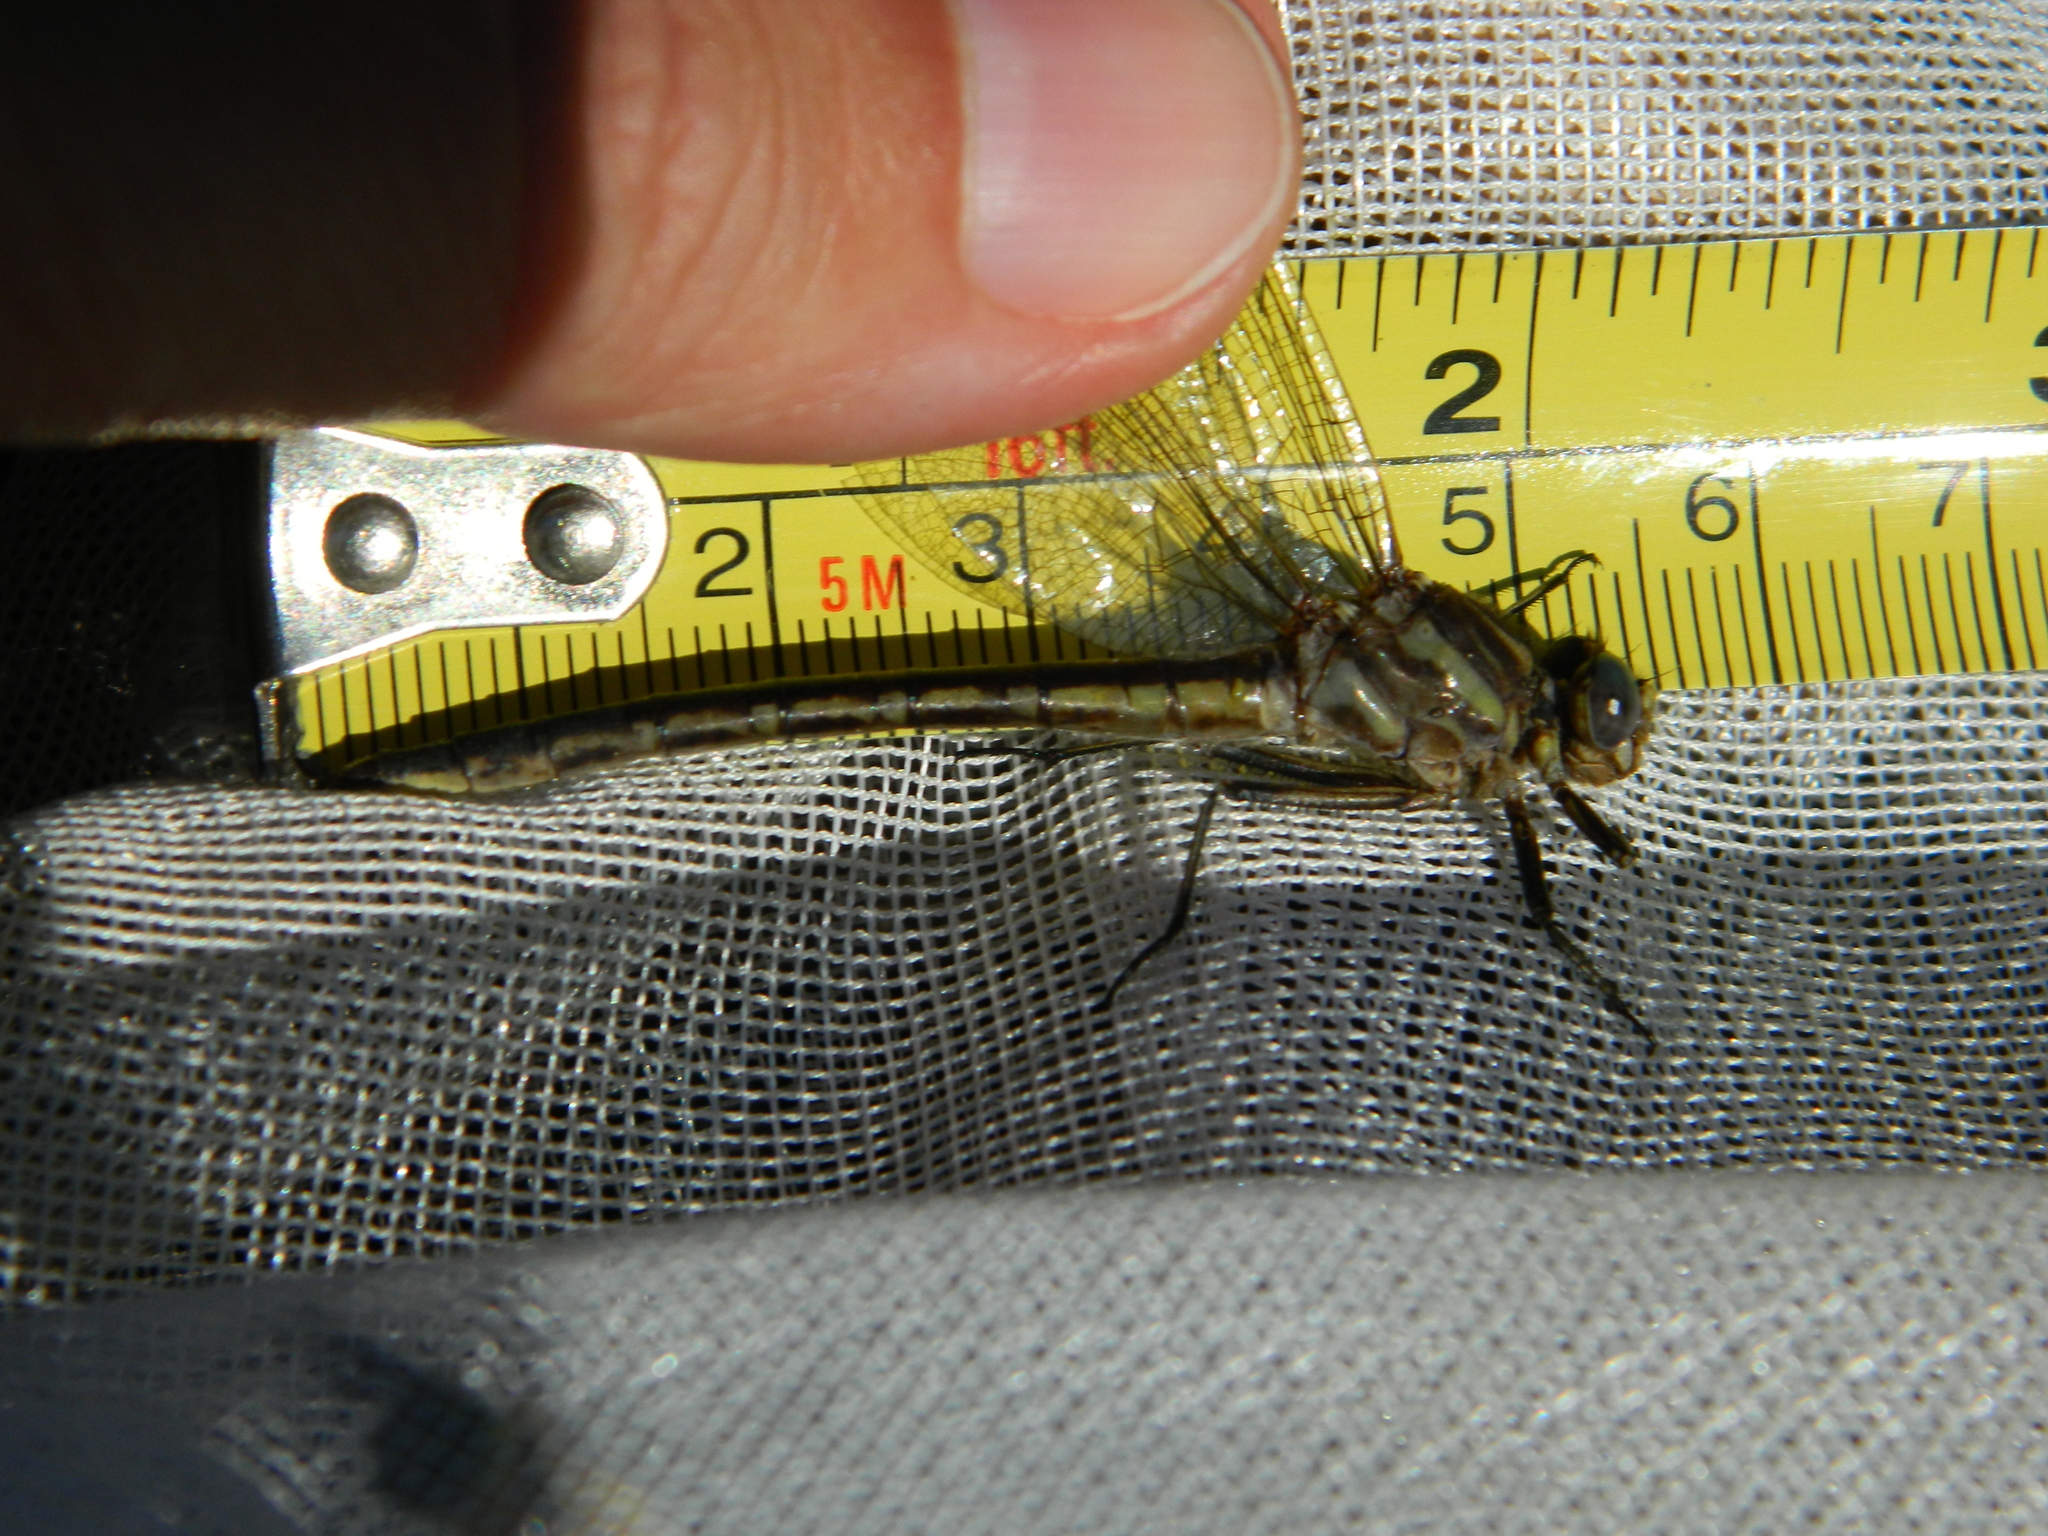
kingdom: Animalia
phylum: Arthropoda
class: Insecta
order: Odonata
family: Gomphidae
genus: Phanogomphus
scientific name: Phanogomphus
